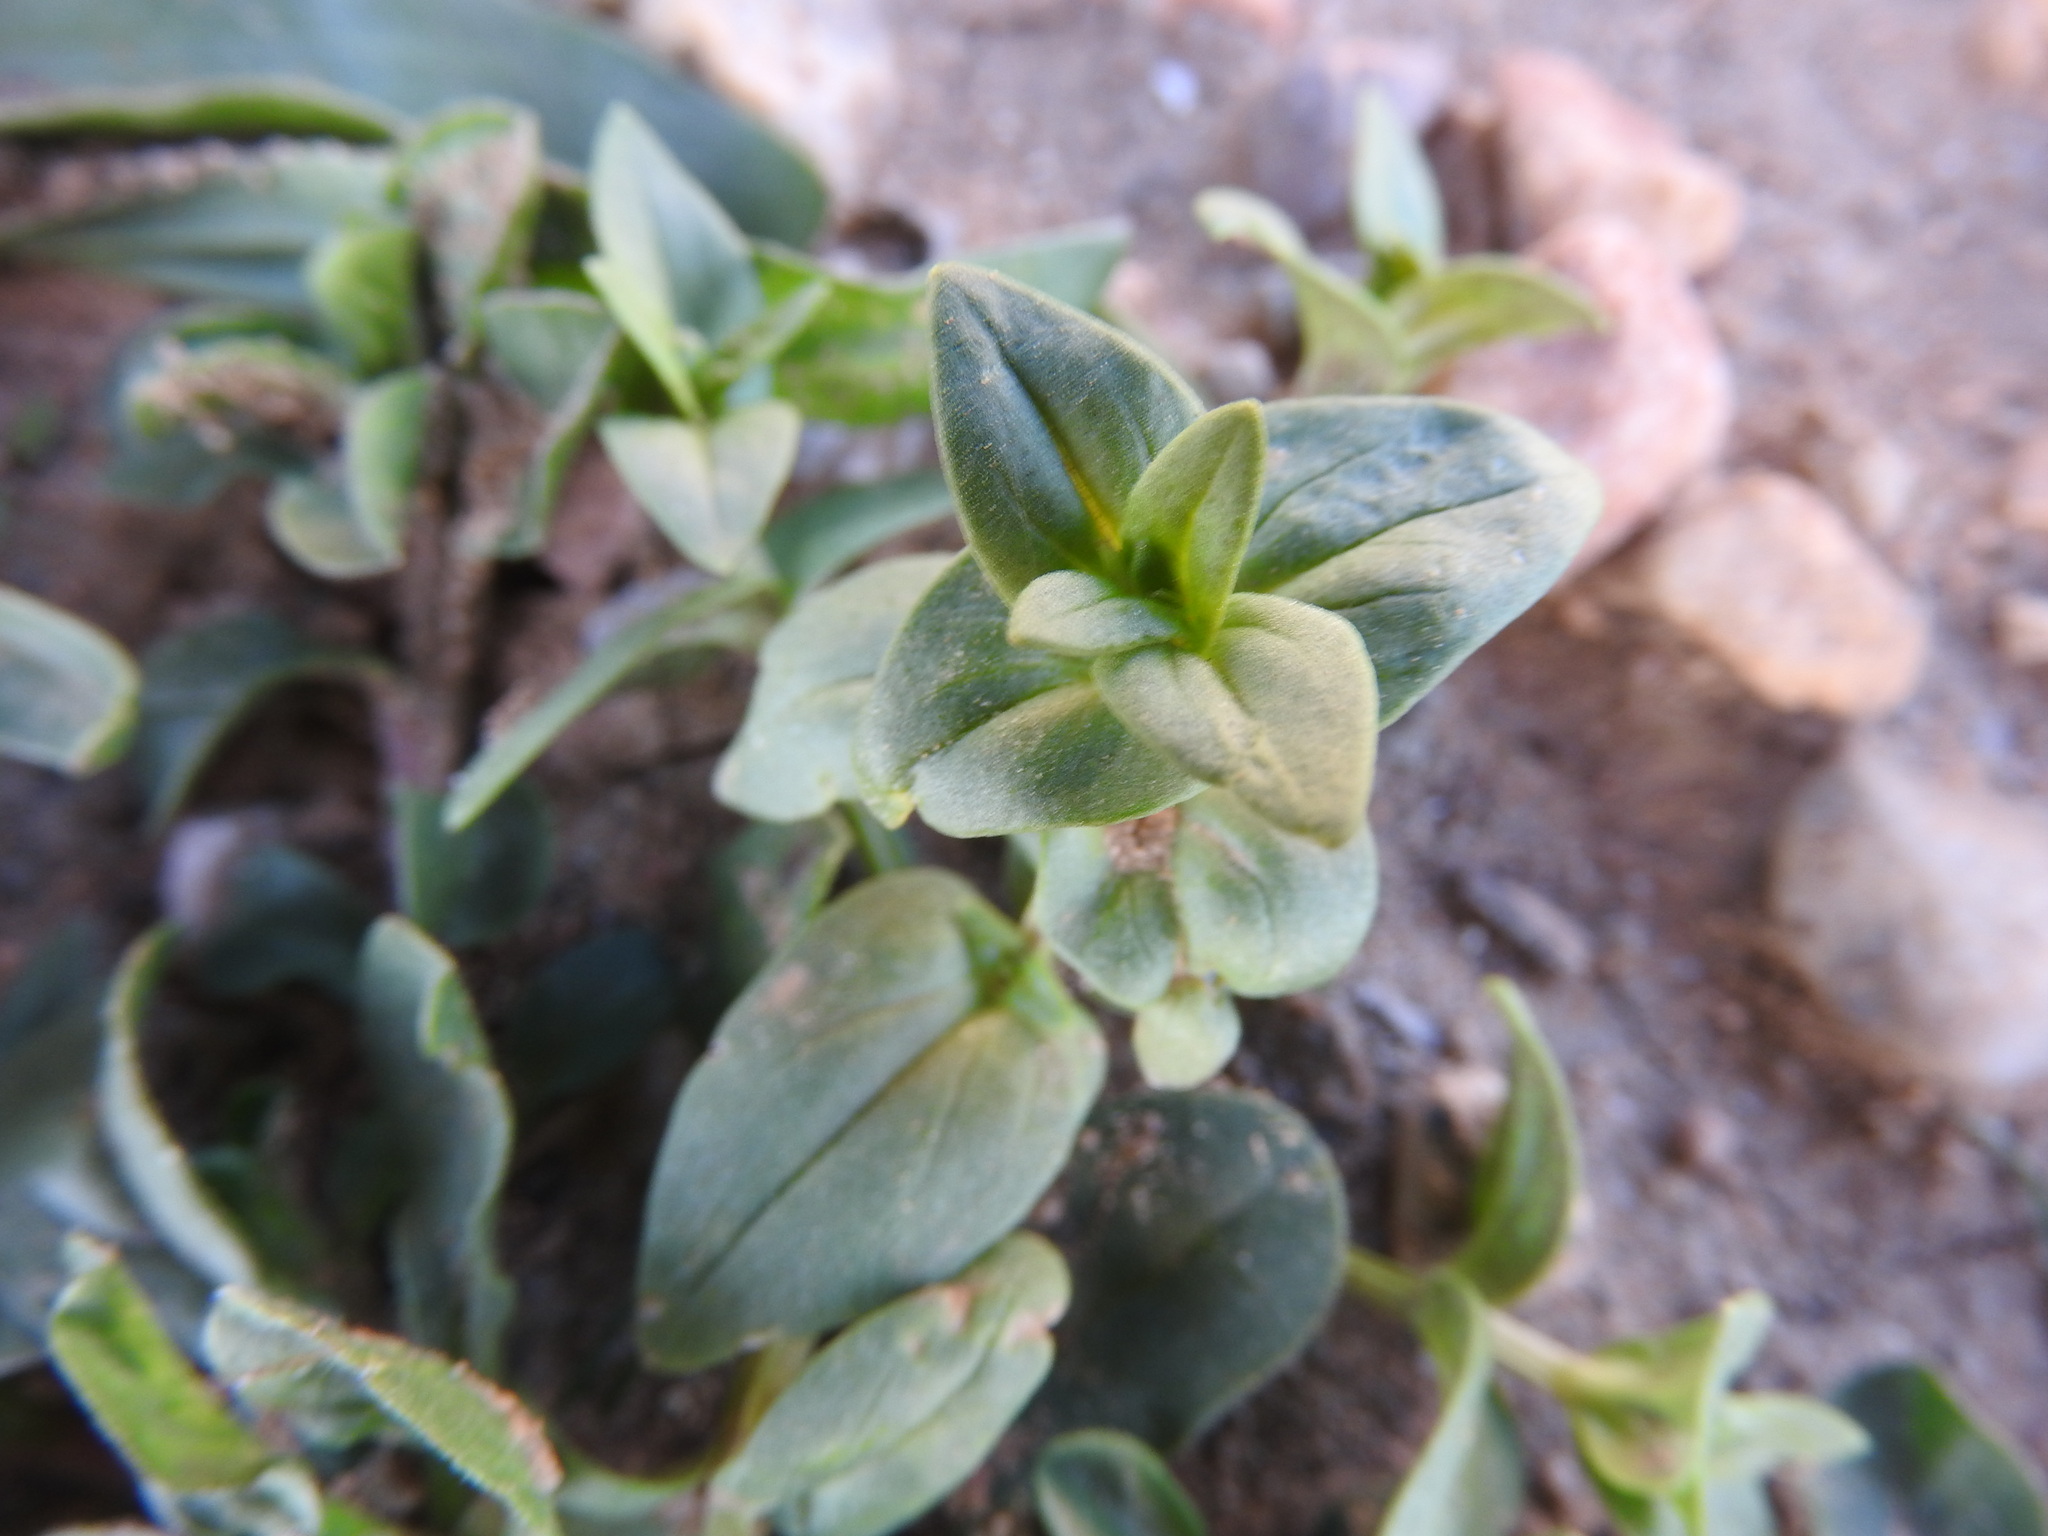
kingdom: Plantae
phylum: Tracheophyta
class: Magnoliopsida
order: Ericales
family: Primulaceae
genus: Lysimachia
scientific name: Lysimachia Anagallis spec
